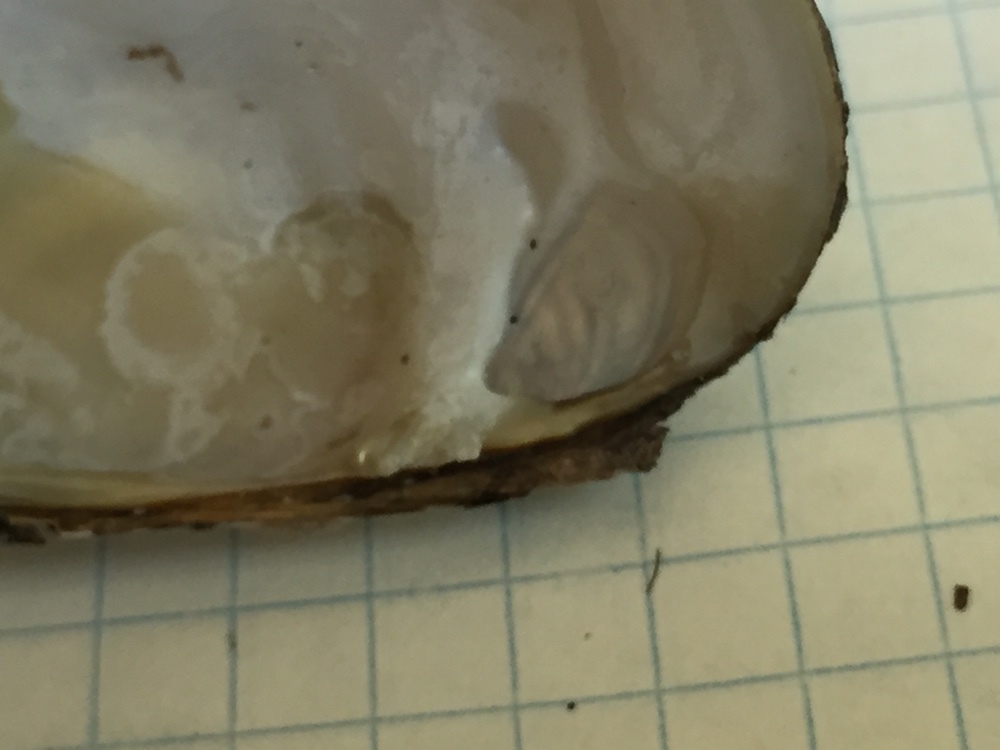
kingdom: Animalia
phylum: Mollusca
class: Bivalvia
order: Unionida
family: Unionidae
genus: Lampsilis
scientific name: Lampsilis siliquoidea
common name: Fatmucket
